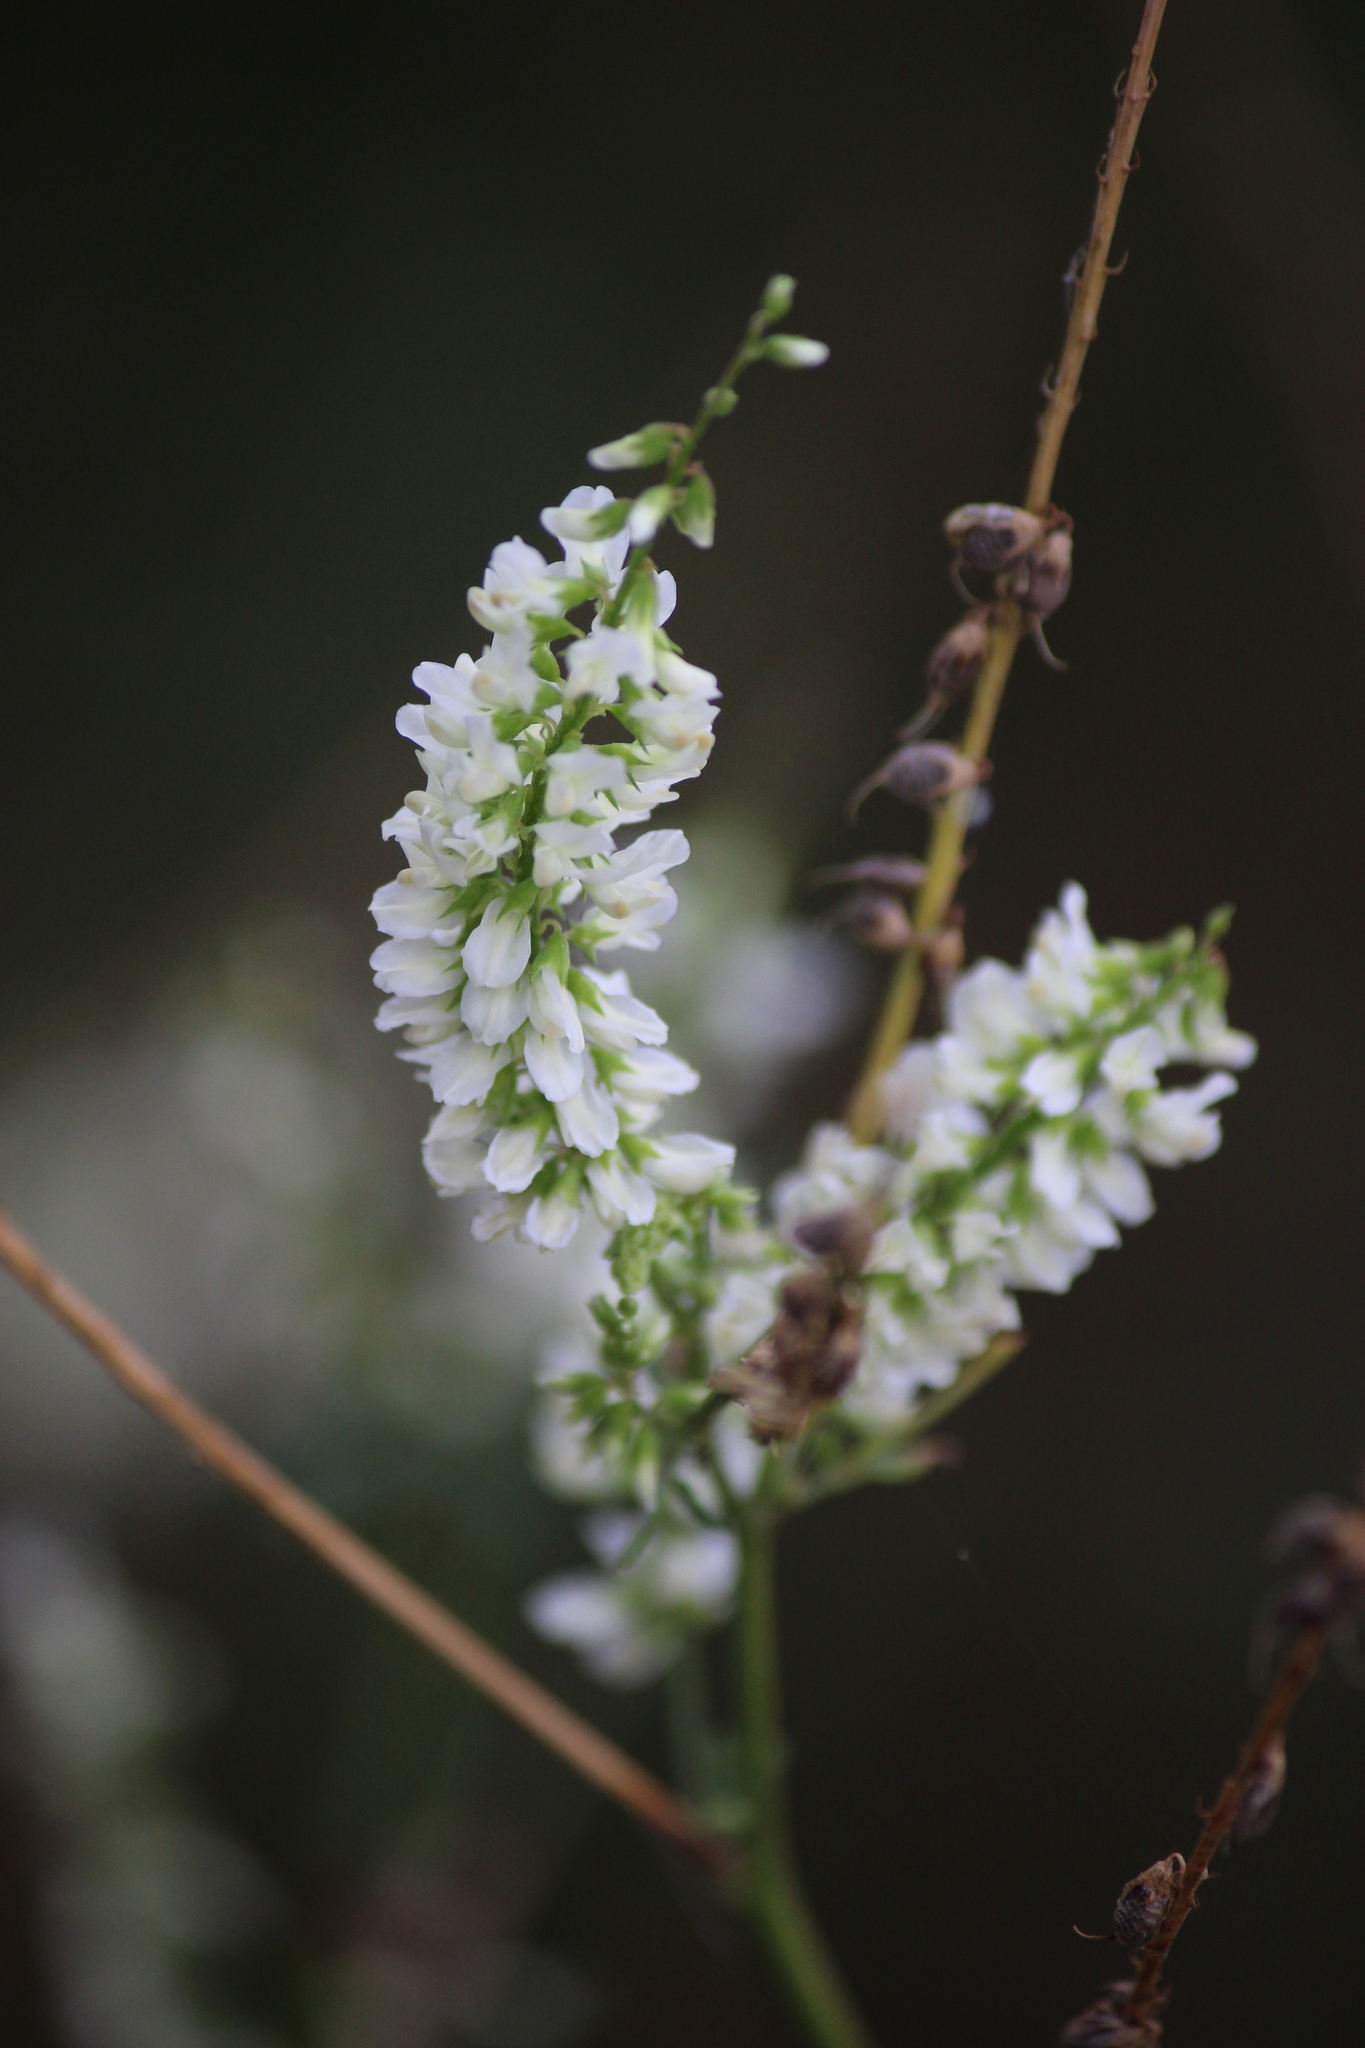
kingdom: Plantae
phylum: Tracheophyta
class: Magnoliopsida
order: Fabales
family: Fabaceae
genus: Melilotus
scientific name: Melilotus albus
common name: White melilot
